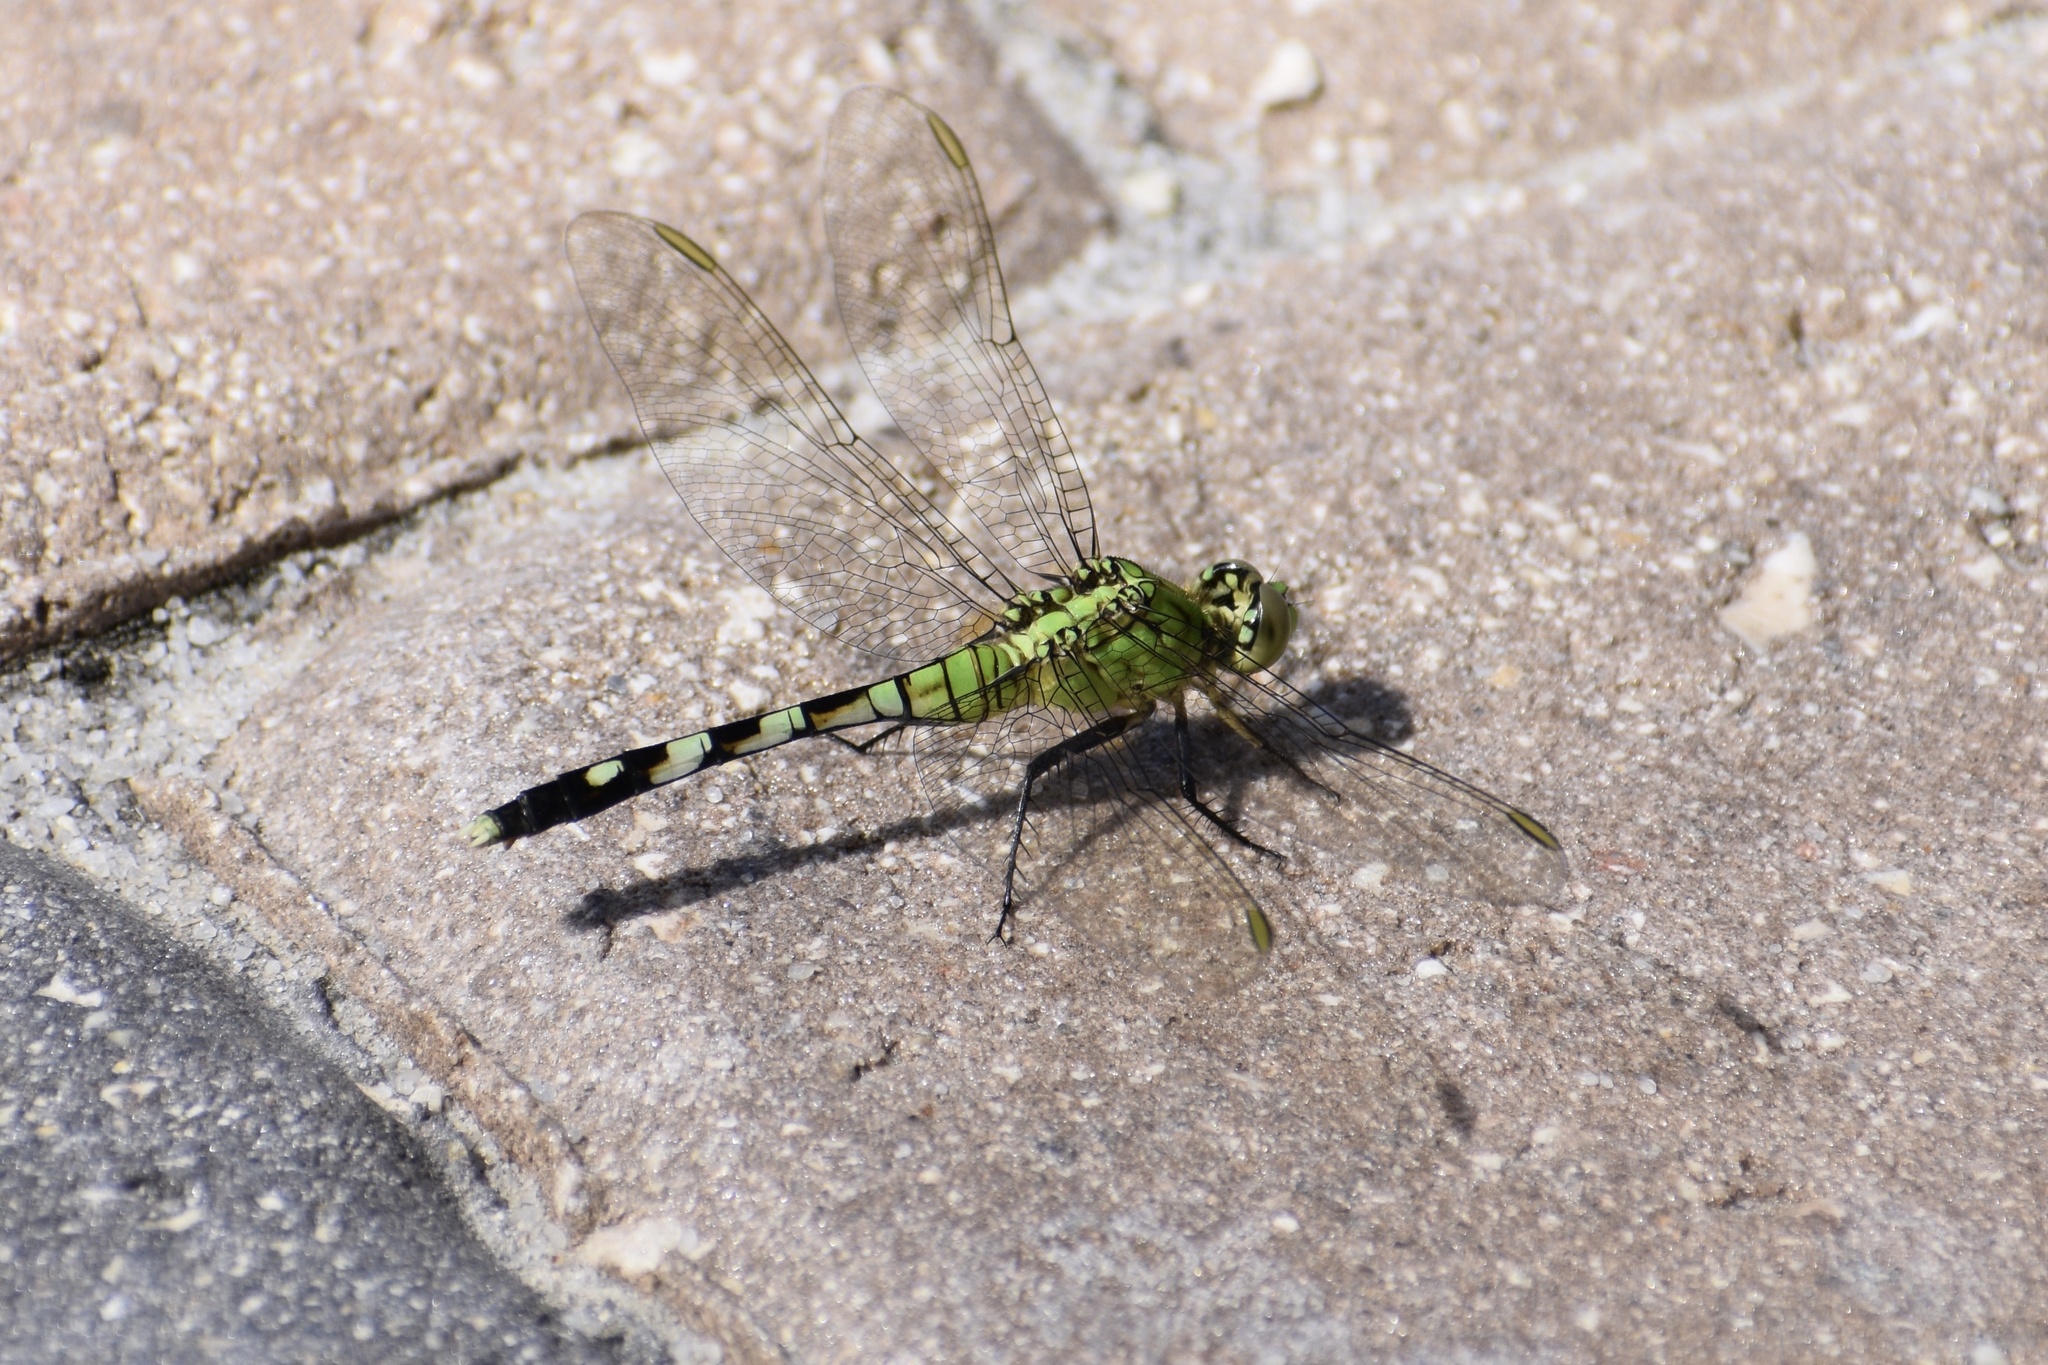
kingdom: Animalia
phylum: Arthropoda
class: Insecta
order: Odonata
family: Libellulidae
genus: Erythemis
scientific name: Erythemis simplicicollis
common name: Eastern pondhawk
